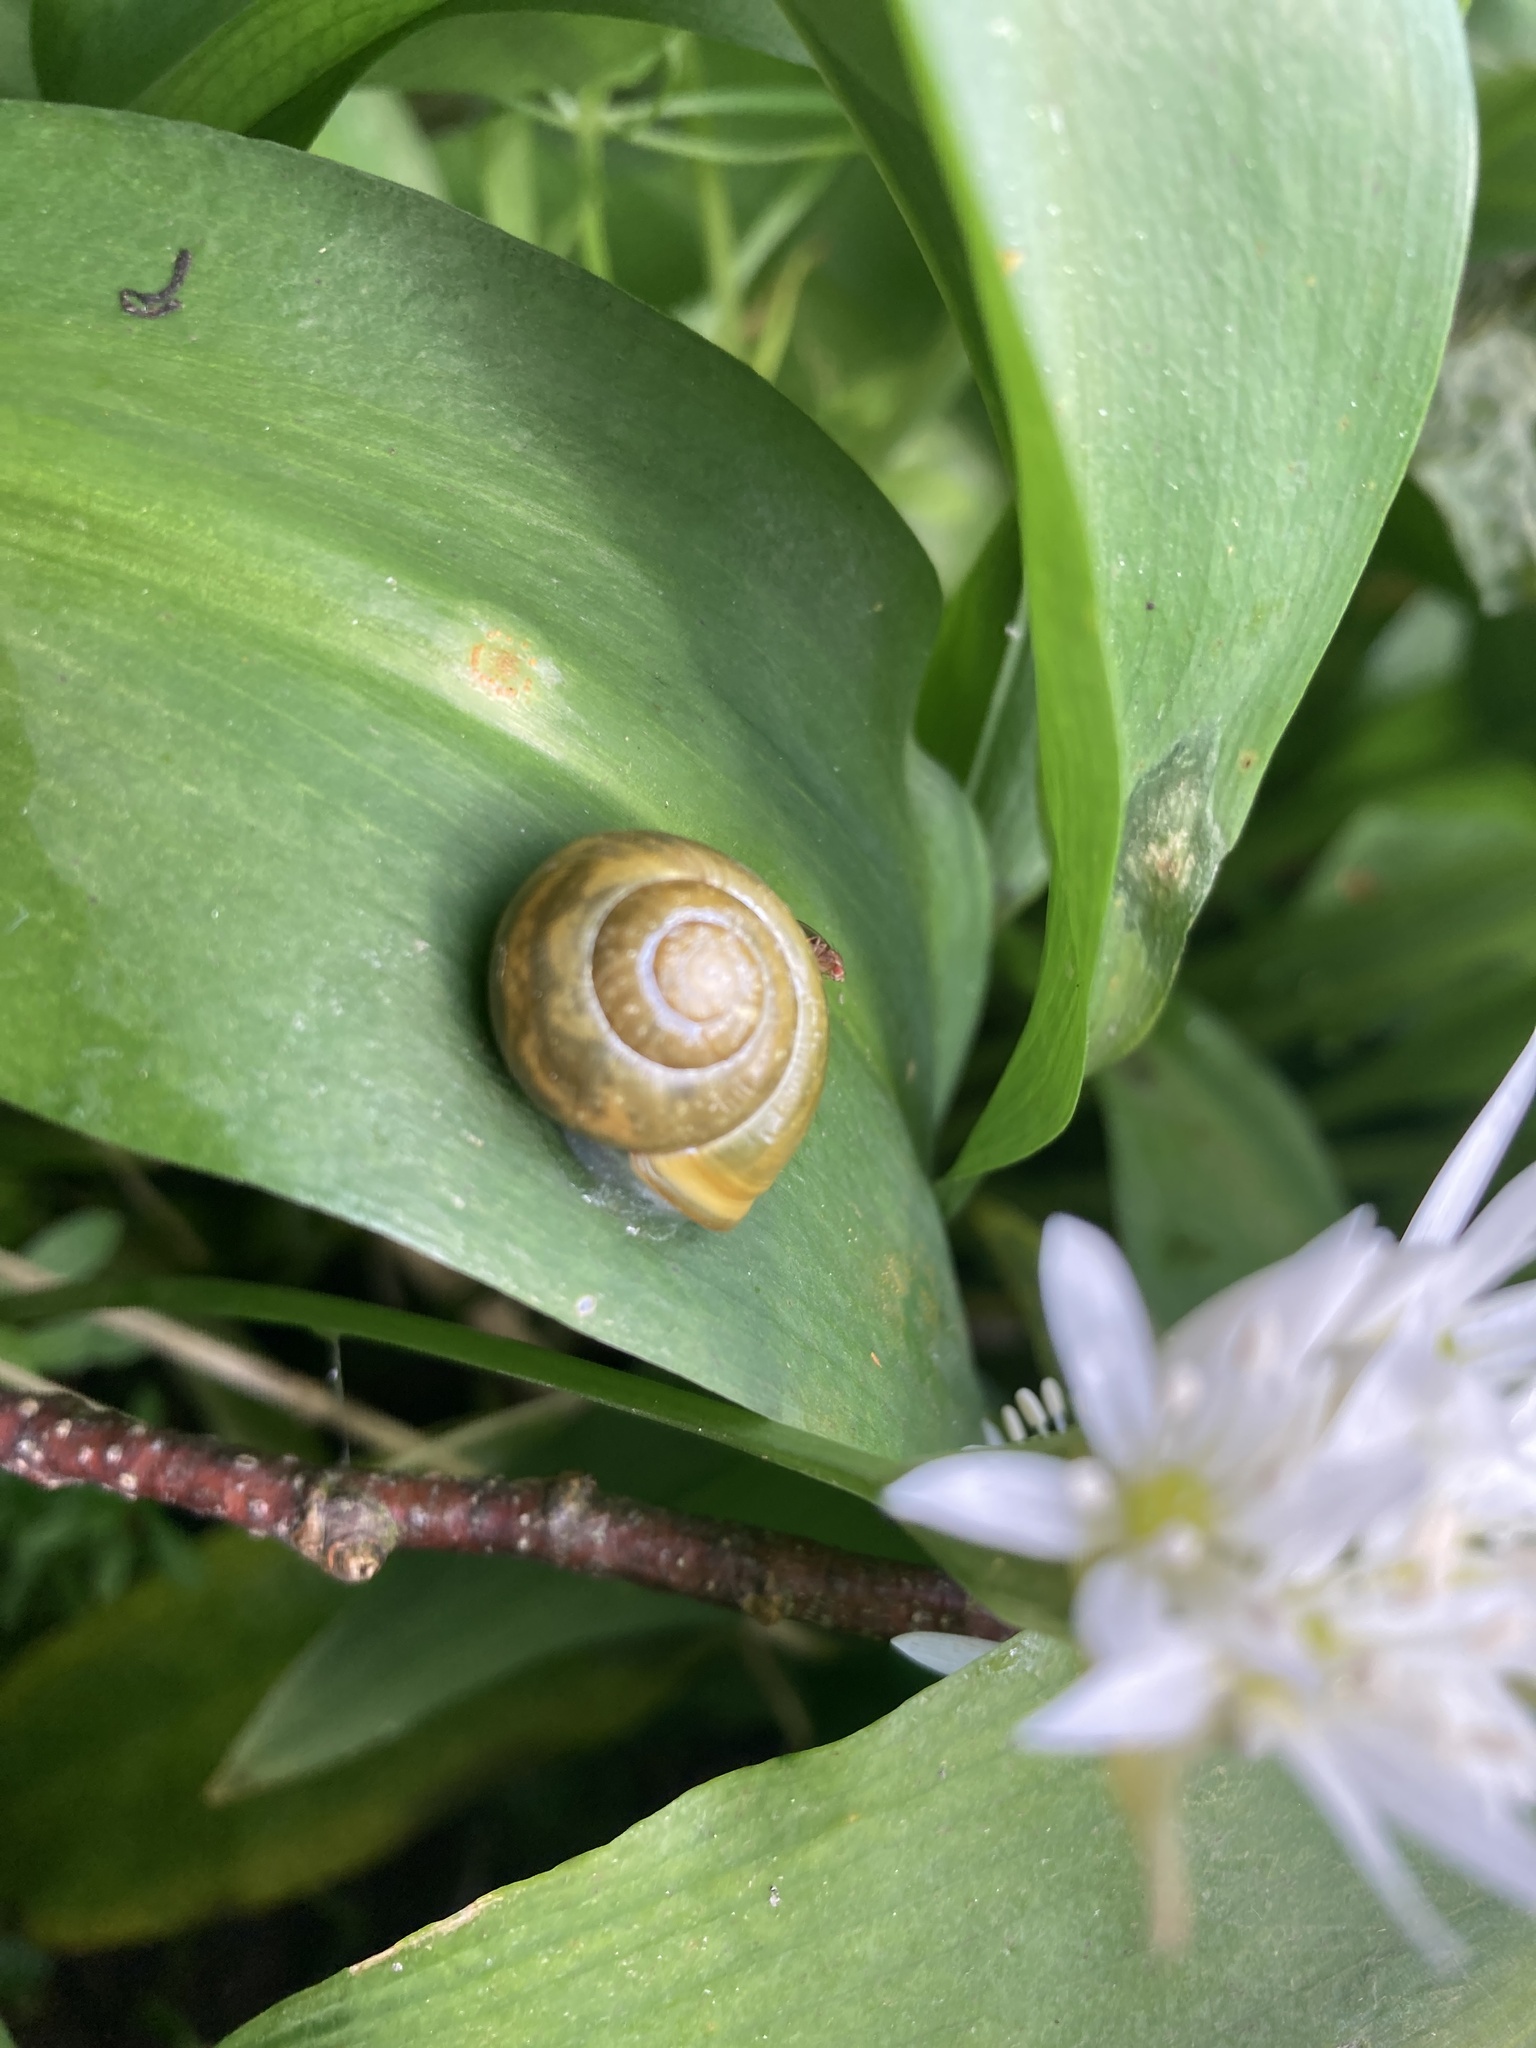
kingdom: Animalia
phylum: Mollusca
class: Gastropoda
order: Stylommatophora
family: Helicidae
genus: Cepaea
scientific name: Cepaea hortensis
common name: White-lip gardensnail
